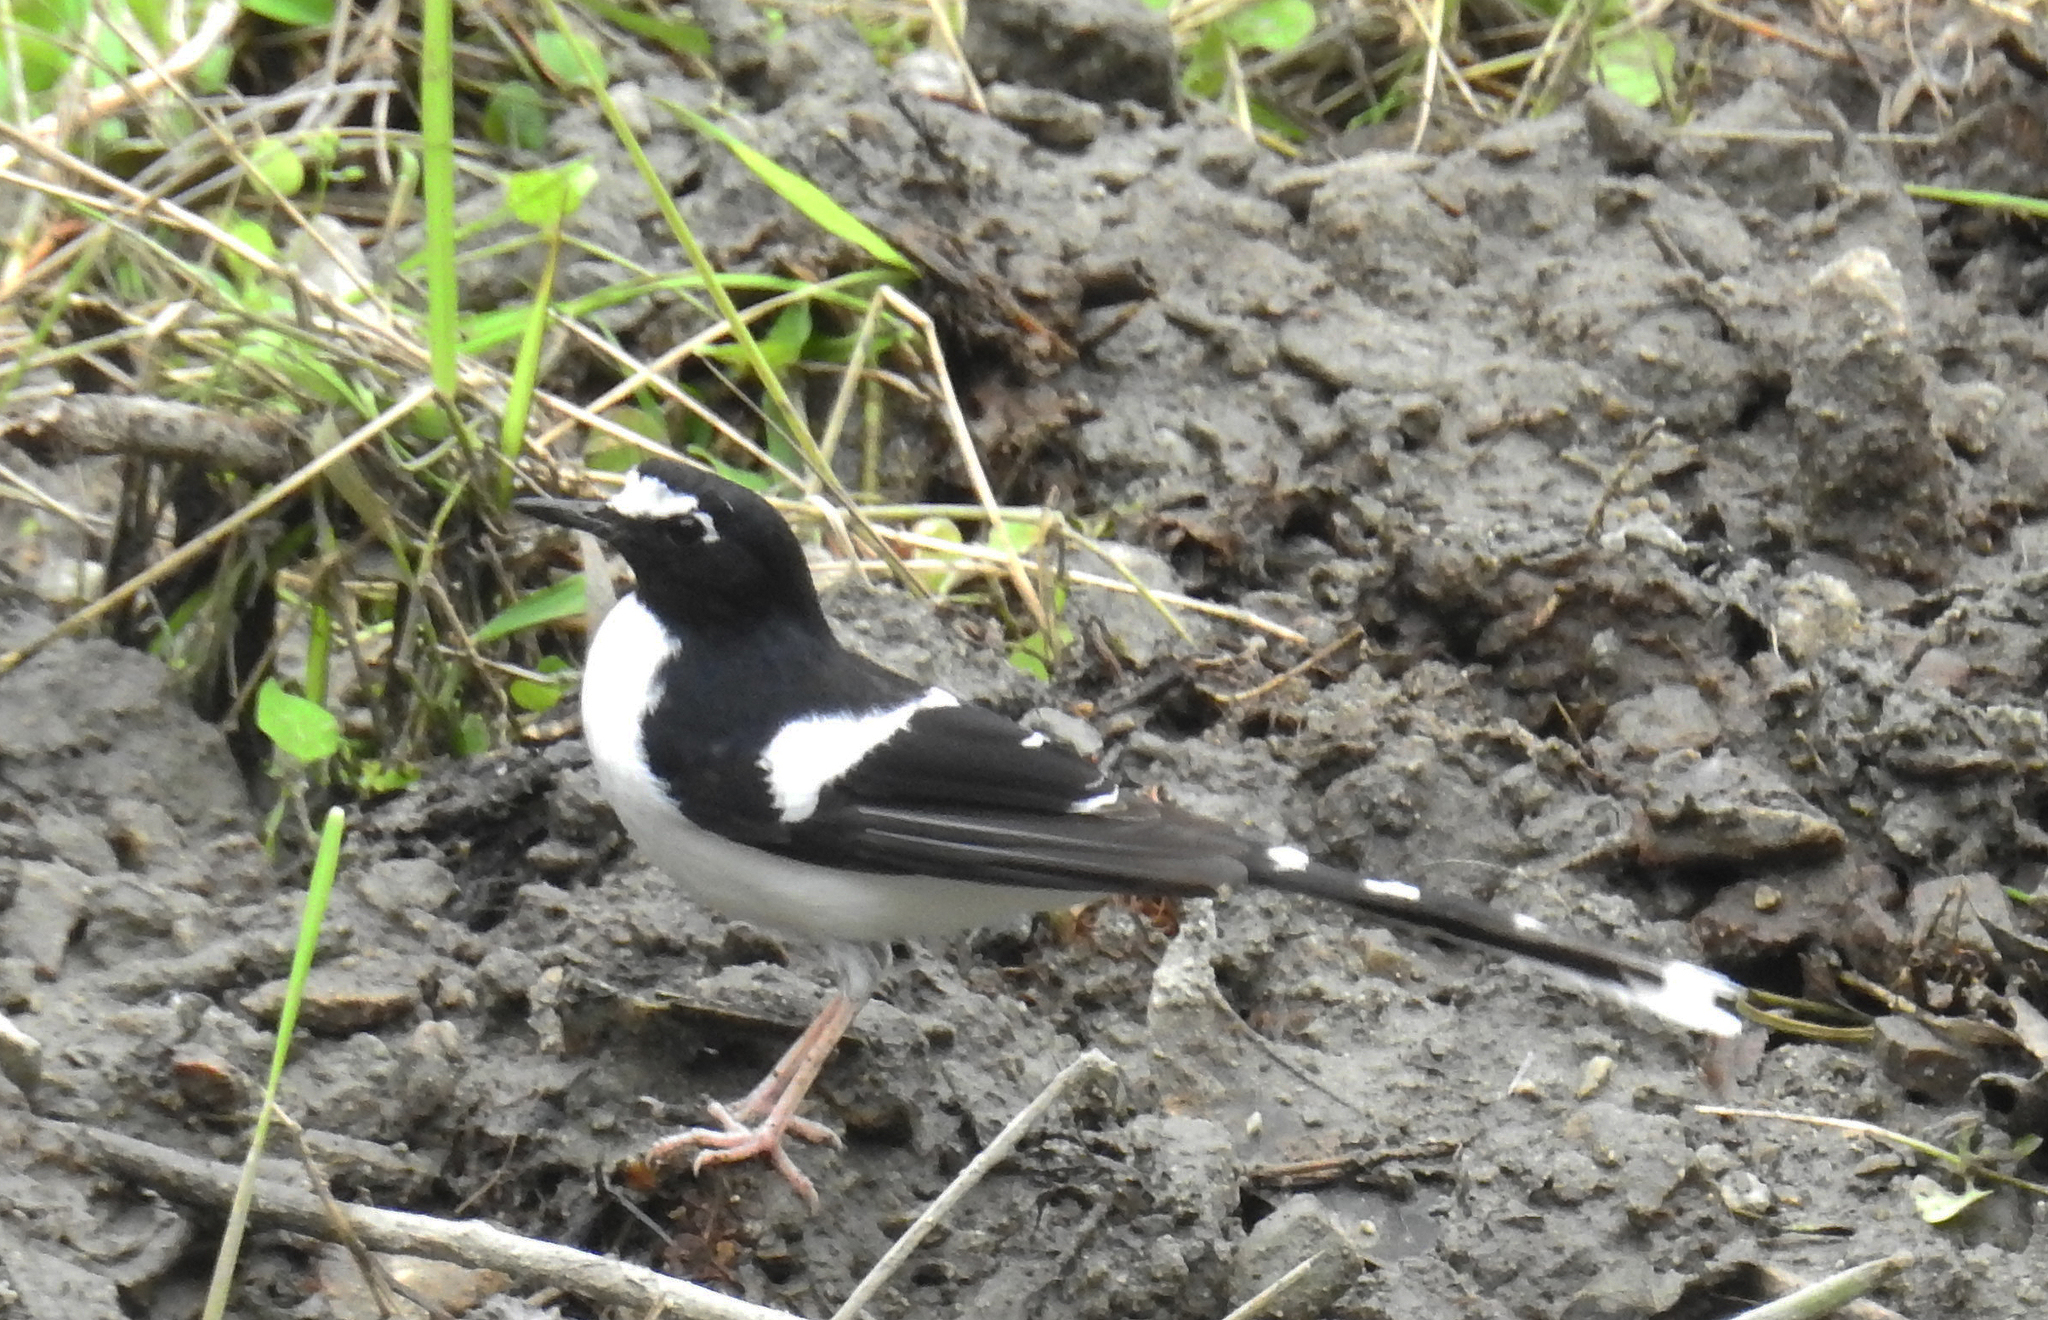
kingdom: Animalia
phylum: Chordata
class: Aves
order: Passeriformes
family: Muscicapidae
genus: Enicurus
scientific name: Enicurus immaculatus
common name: Black-backed forktail
